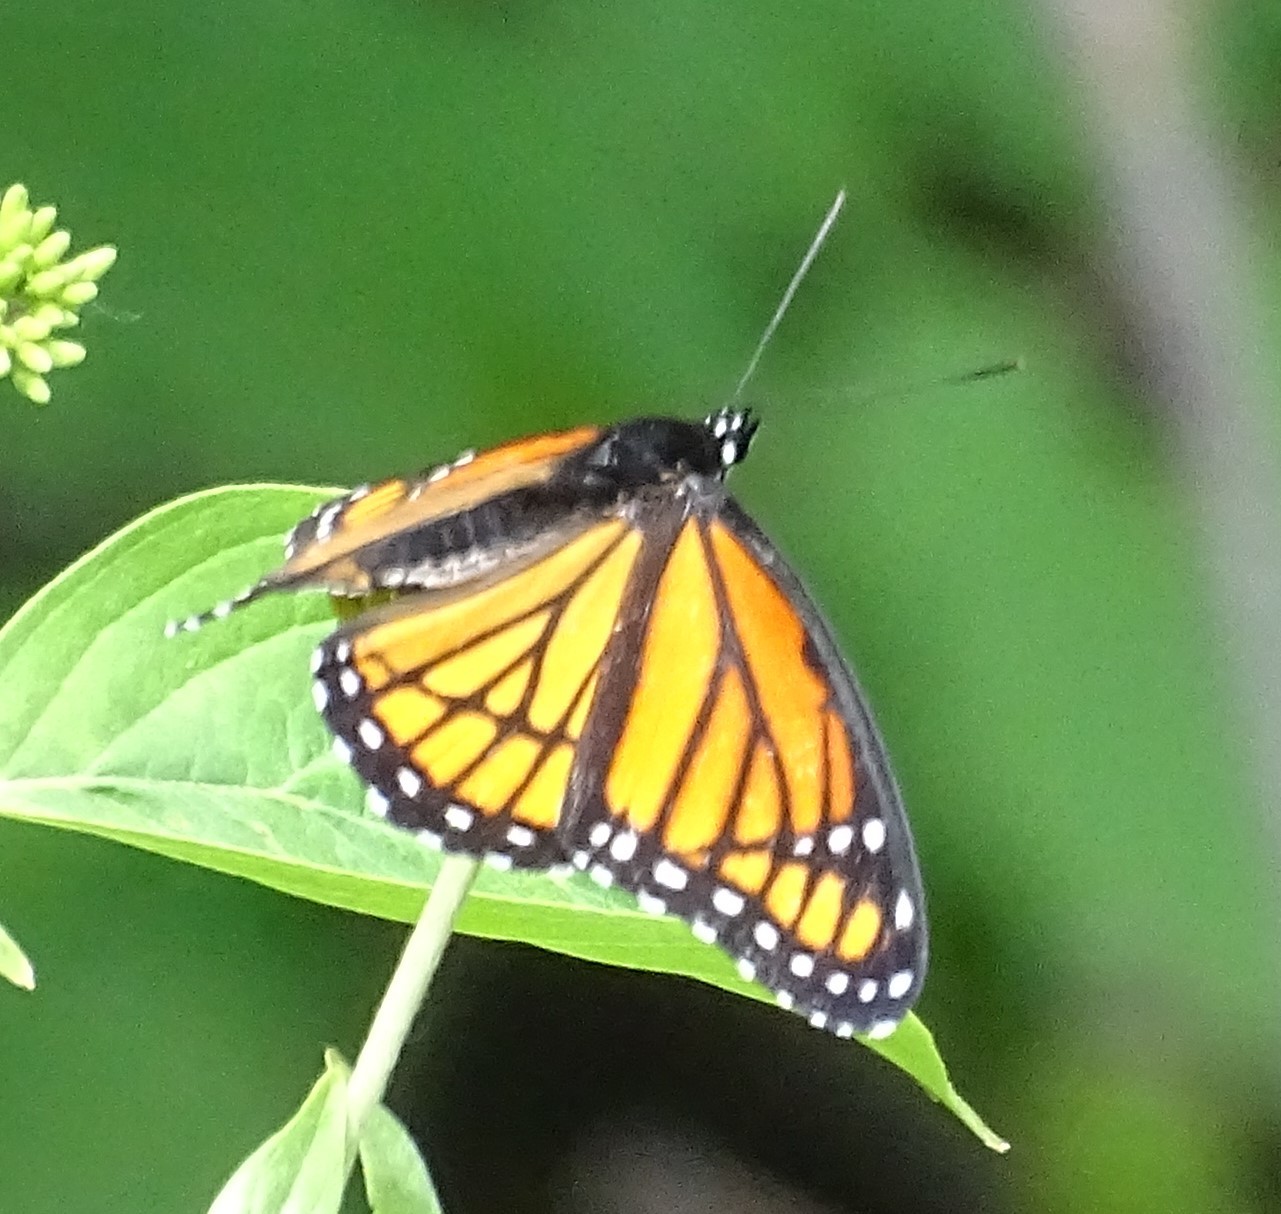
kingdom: Animalia
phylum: Arthropoda
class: Insecta
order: Lepidoptera
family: Nymphalidae
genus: Limenitis
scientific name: Limenitis archippus
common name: Viceroy
